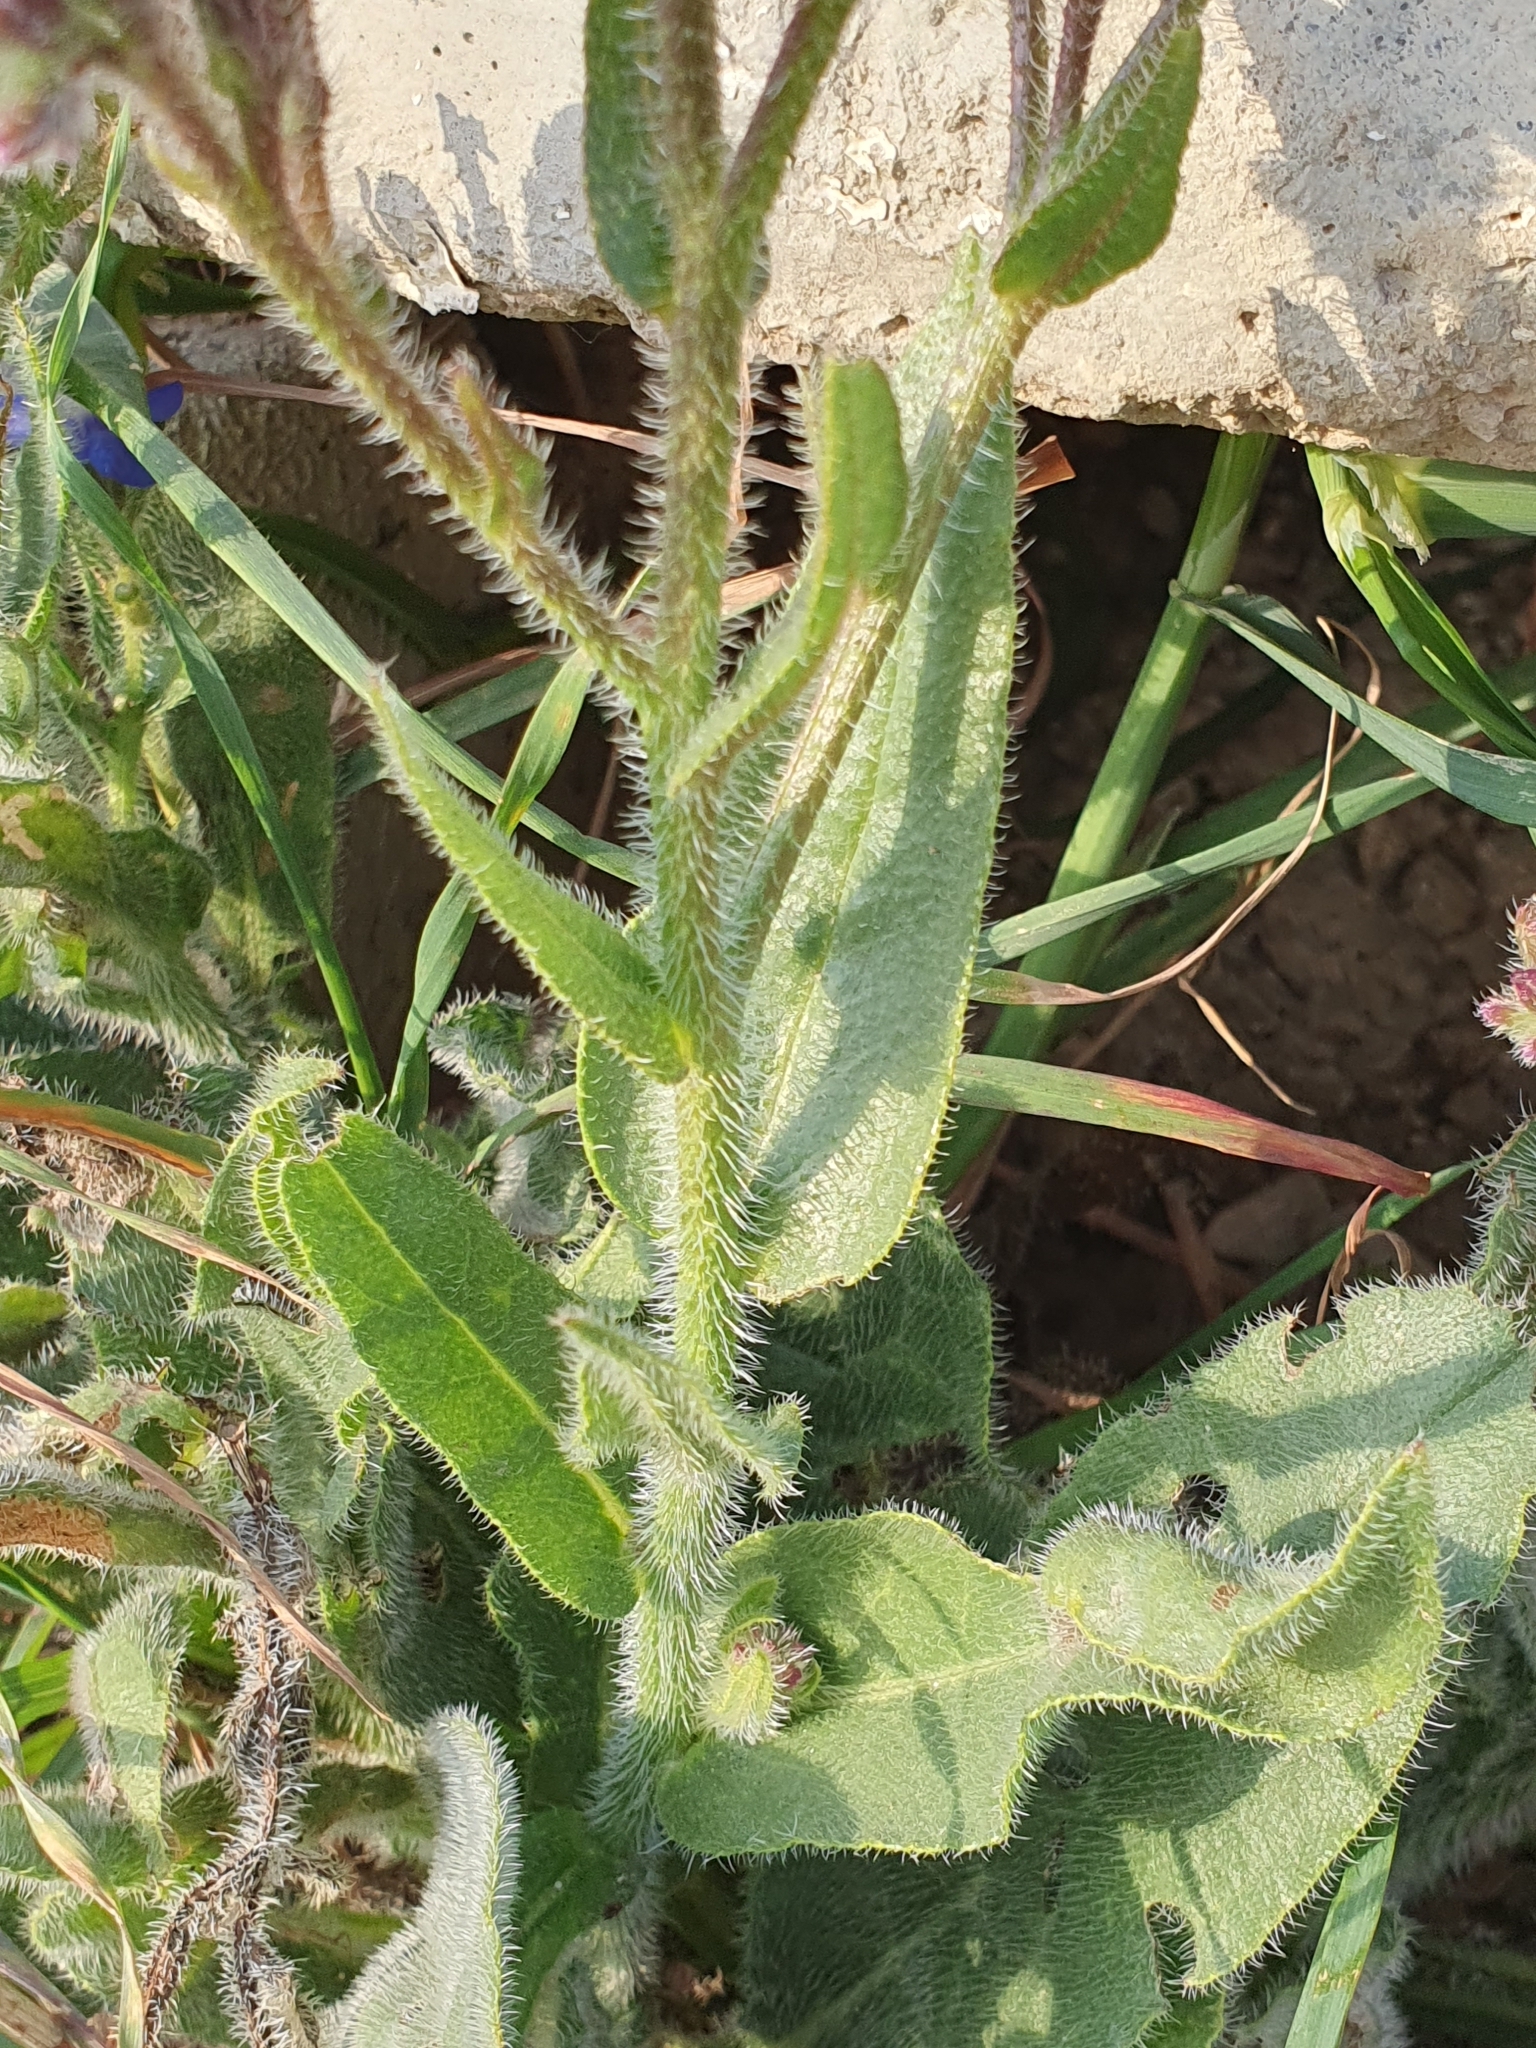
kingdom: Plantae
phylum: Tracheophyta
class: Magnoliopsida
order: Boraginales
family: Boraginaceae
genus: Anchusa
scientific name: Anchusa azurea
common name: Garden anchusa
